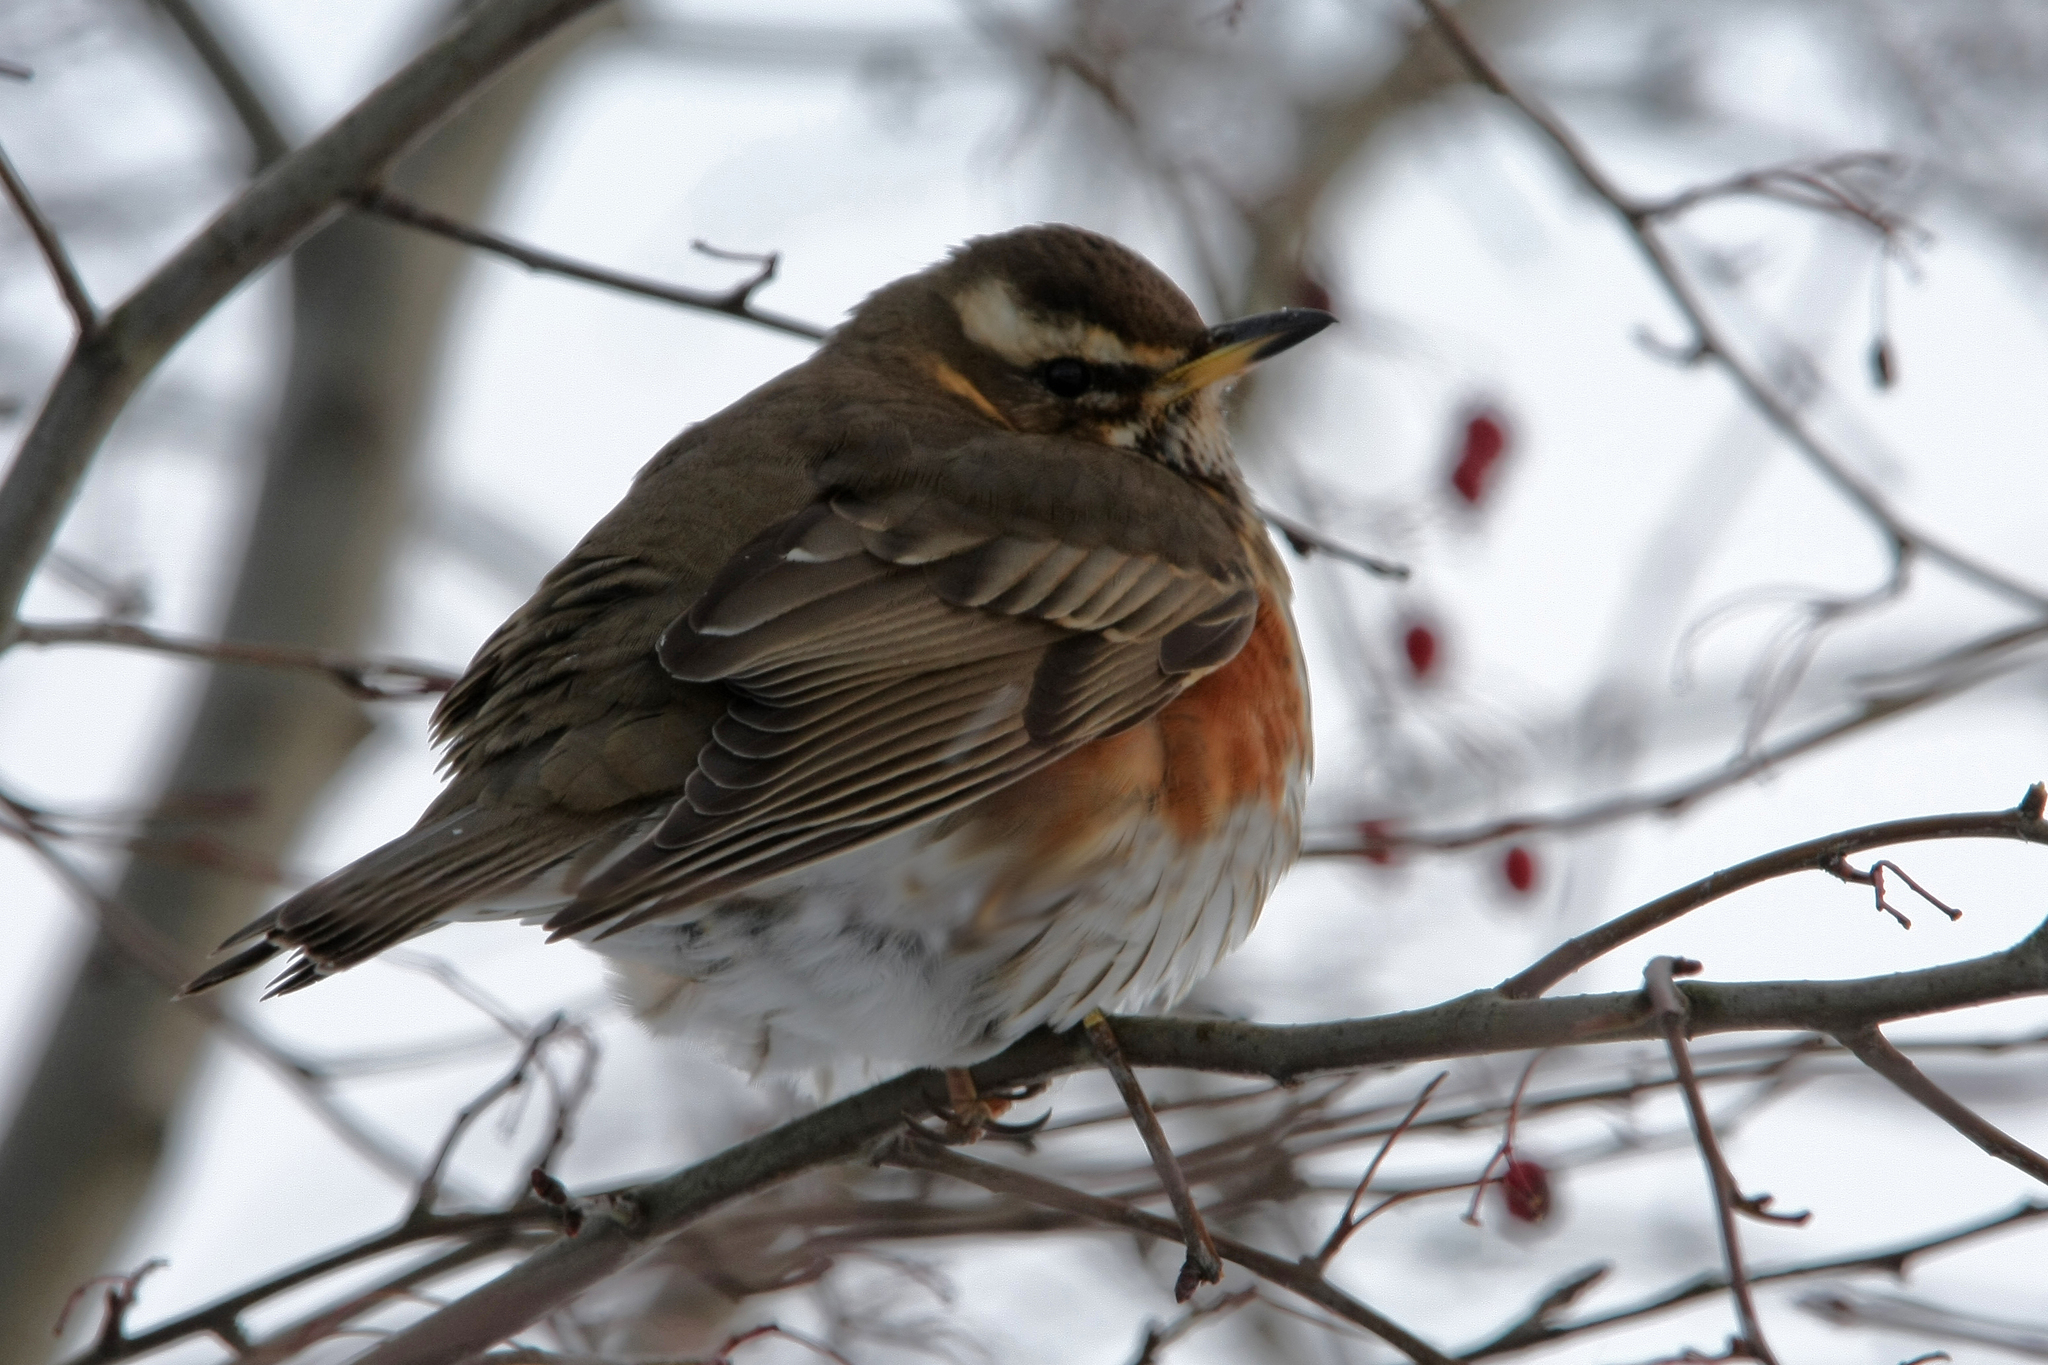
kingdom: Animalia
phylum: Chordata
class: Aves
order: Passeriformes
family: Turdidae
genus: Turdus
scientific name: Turdus iliacus
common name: Redwing
